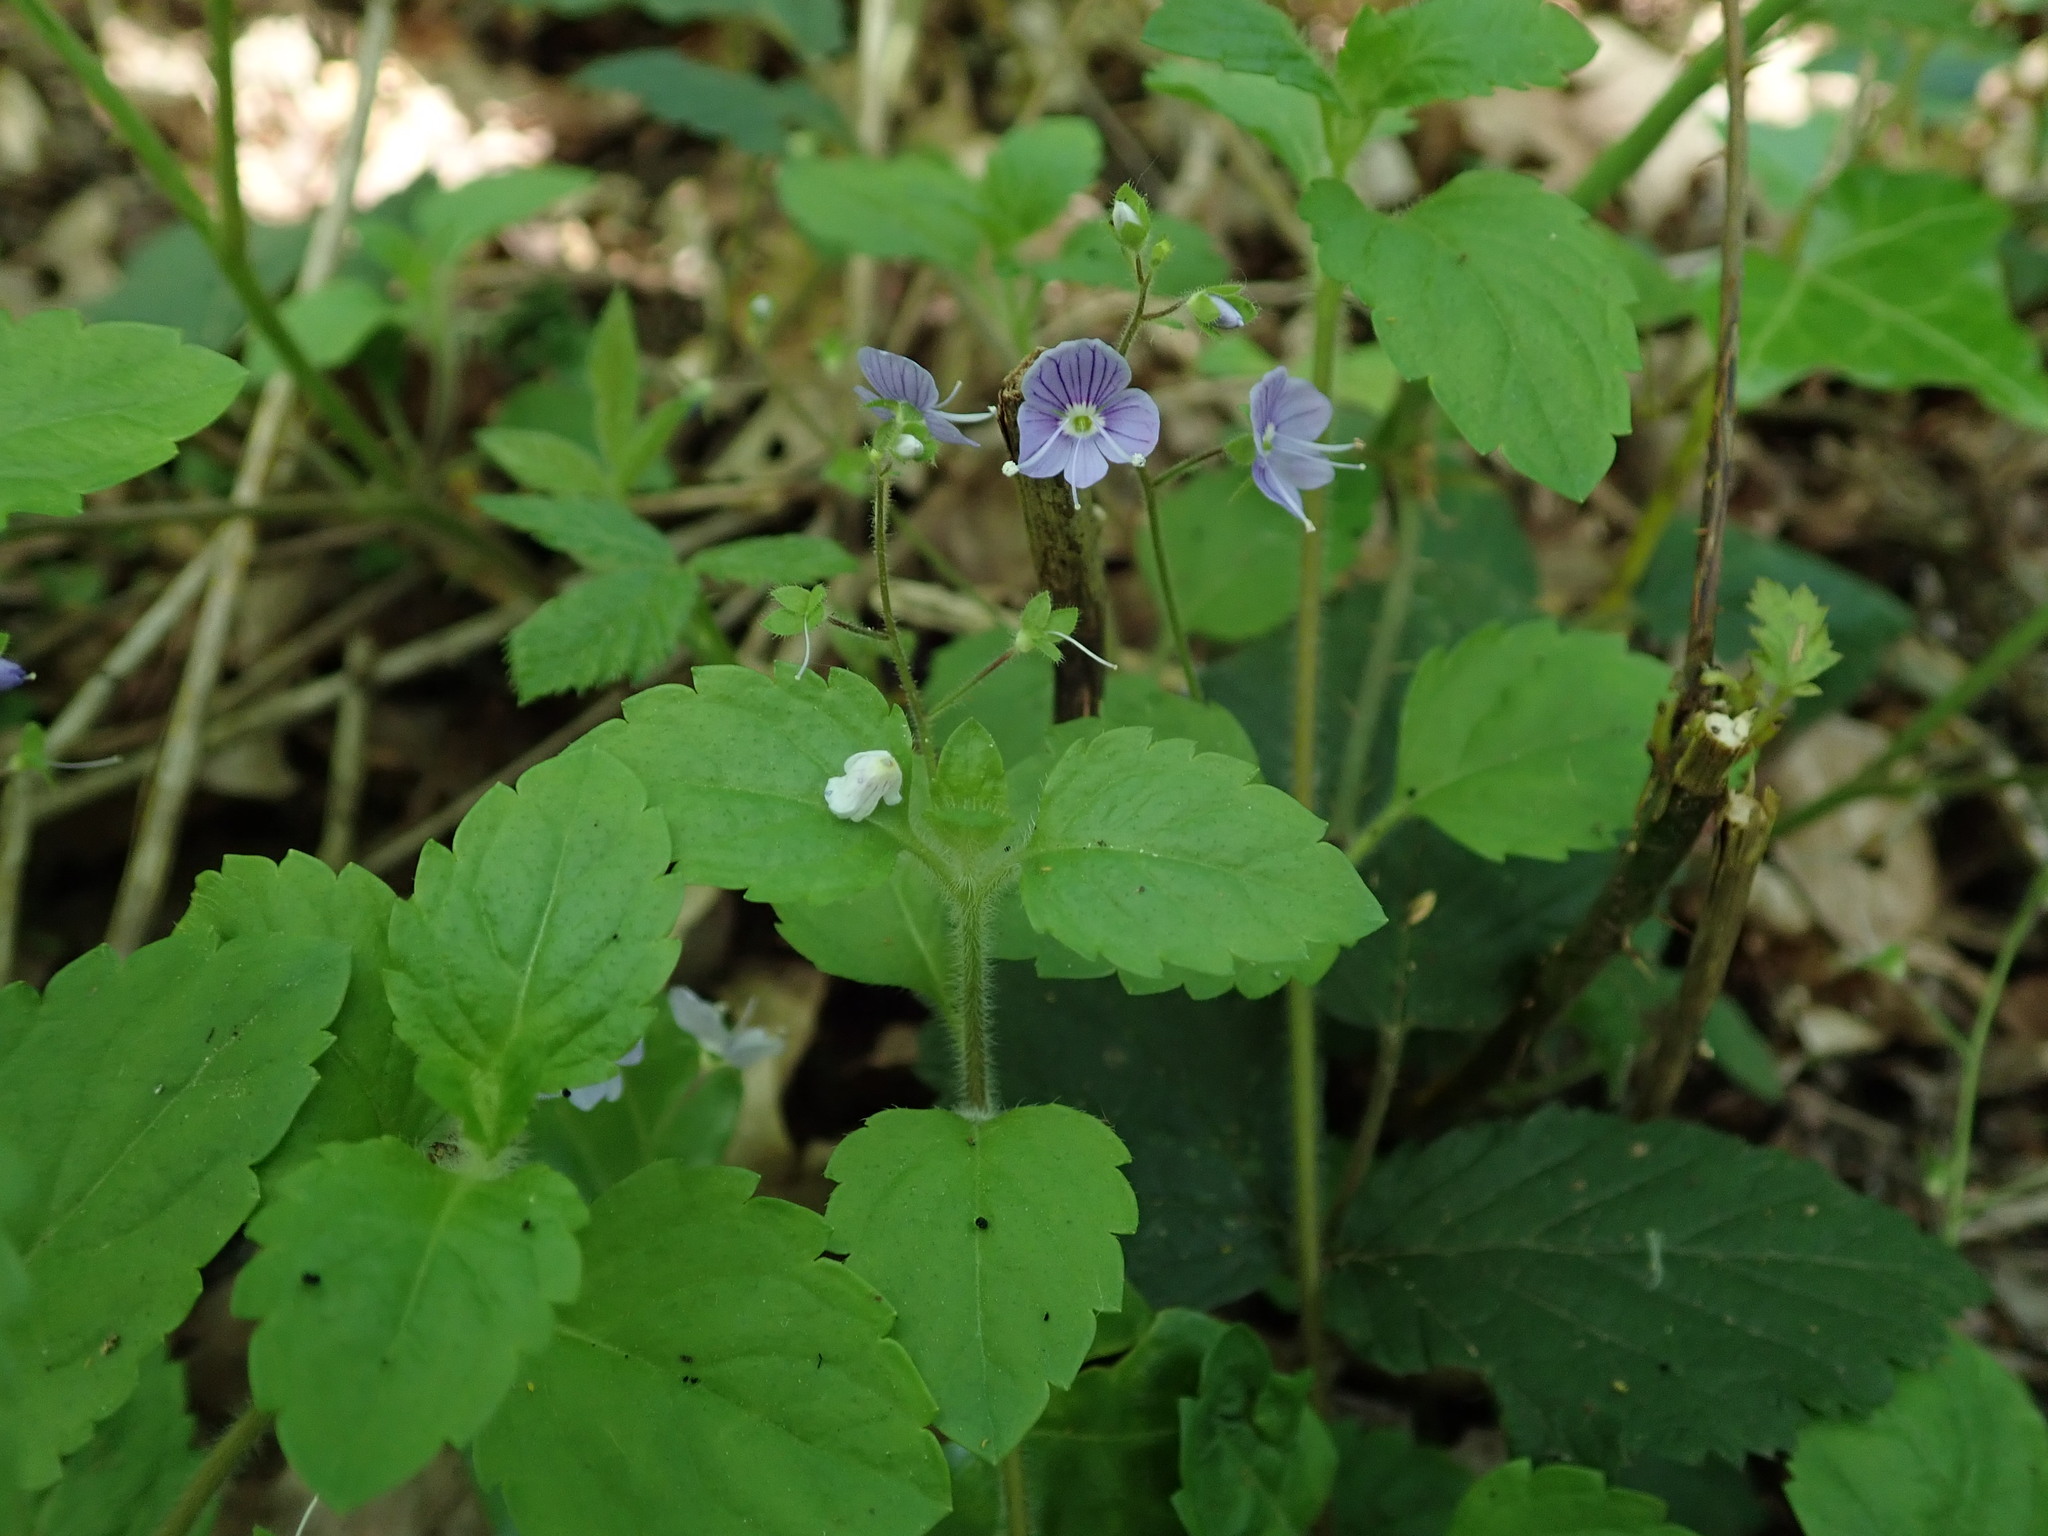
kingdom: Plantae
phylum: Tracheophyta
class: Magnoliopsida
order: Lamiales
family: Plantaginaceae
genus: Veronica
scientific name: Veronica montana
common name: Wood speedwell
